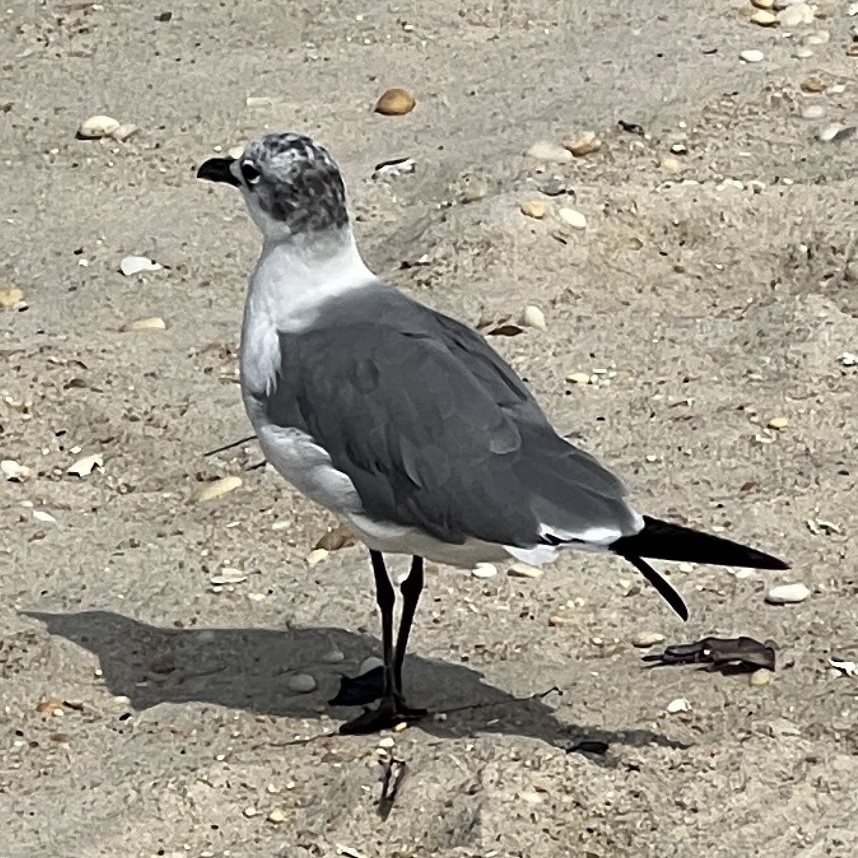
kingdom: Animalia
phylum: Chordata
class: Aves
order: Charadriiformes
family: Laridae
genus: Leucophaeus
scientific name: Leucophaeus atricilla
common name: Laughing gull
